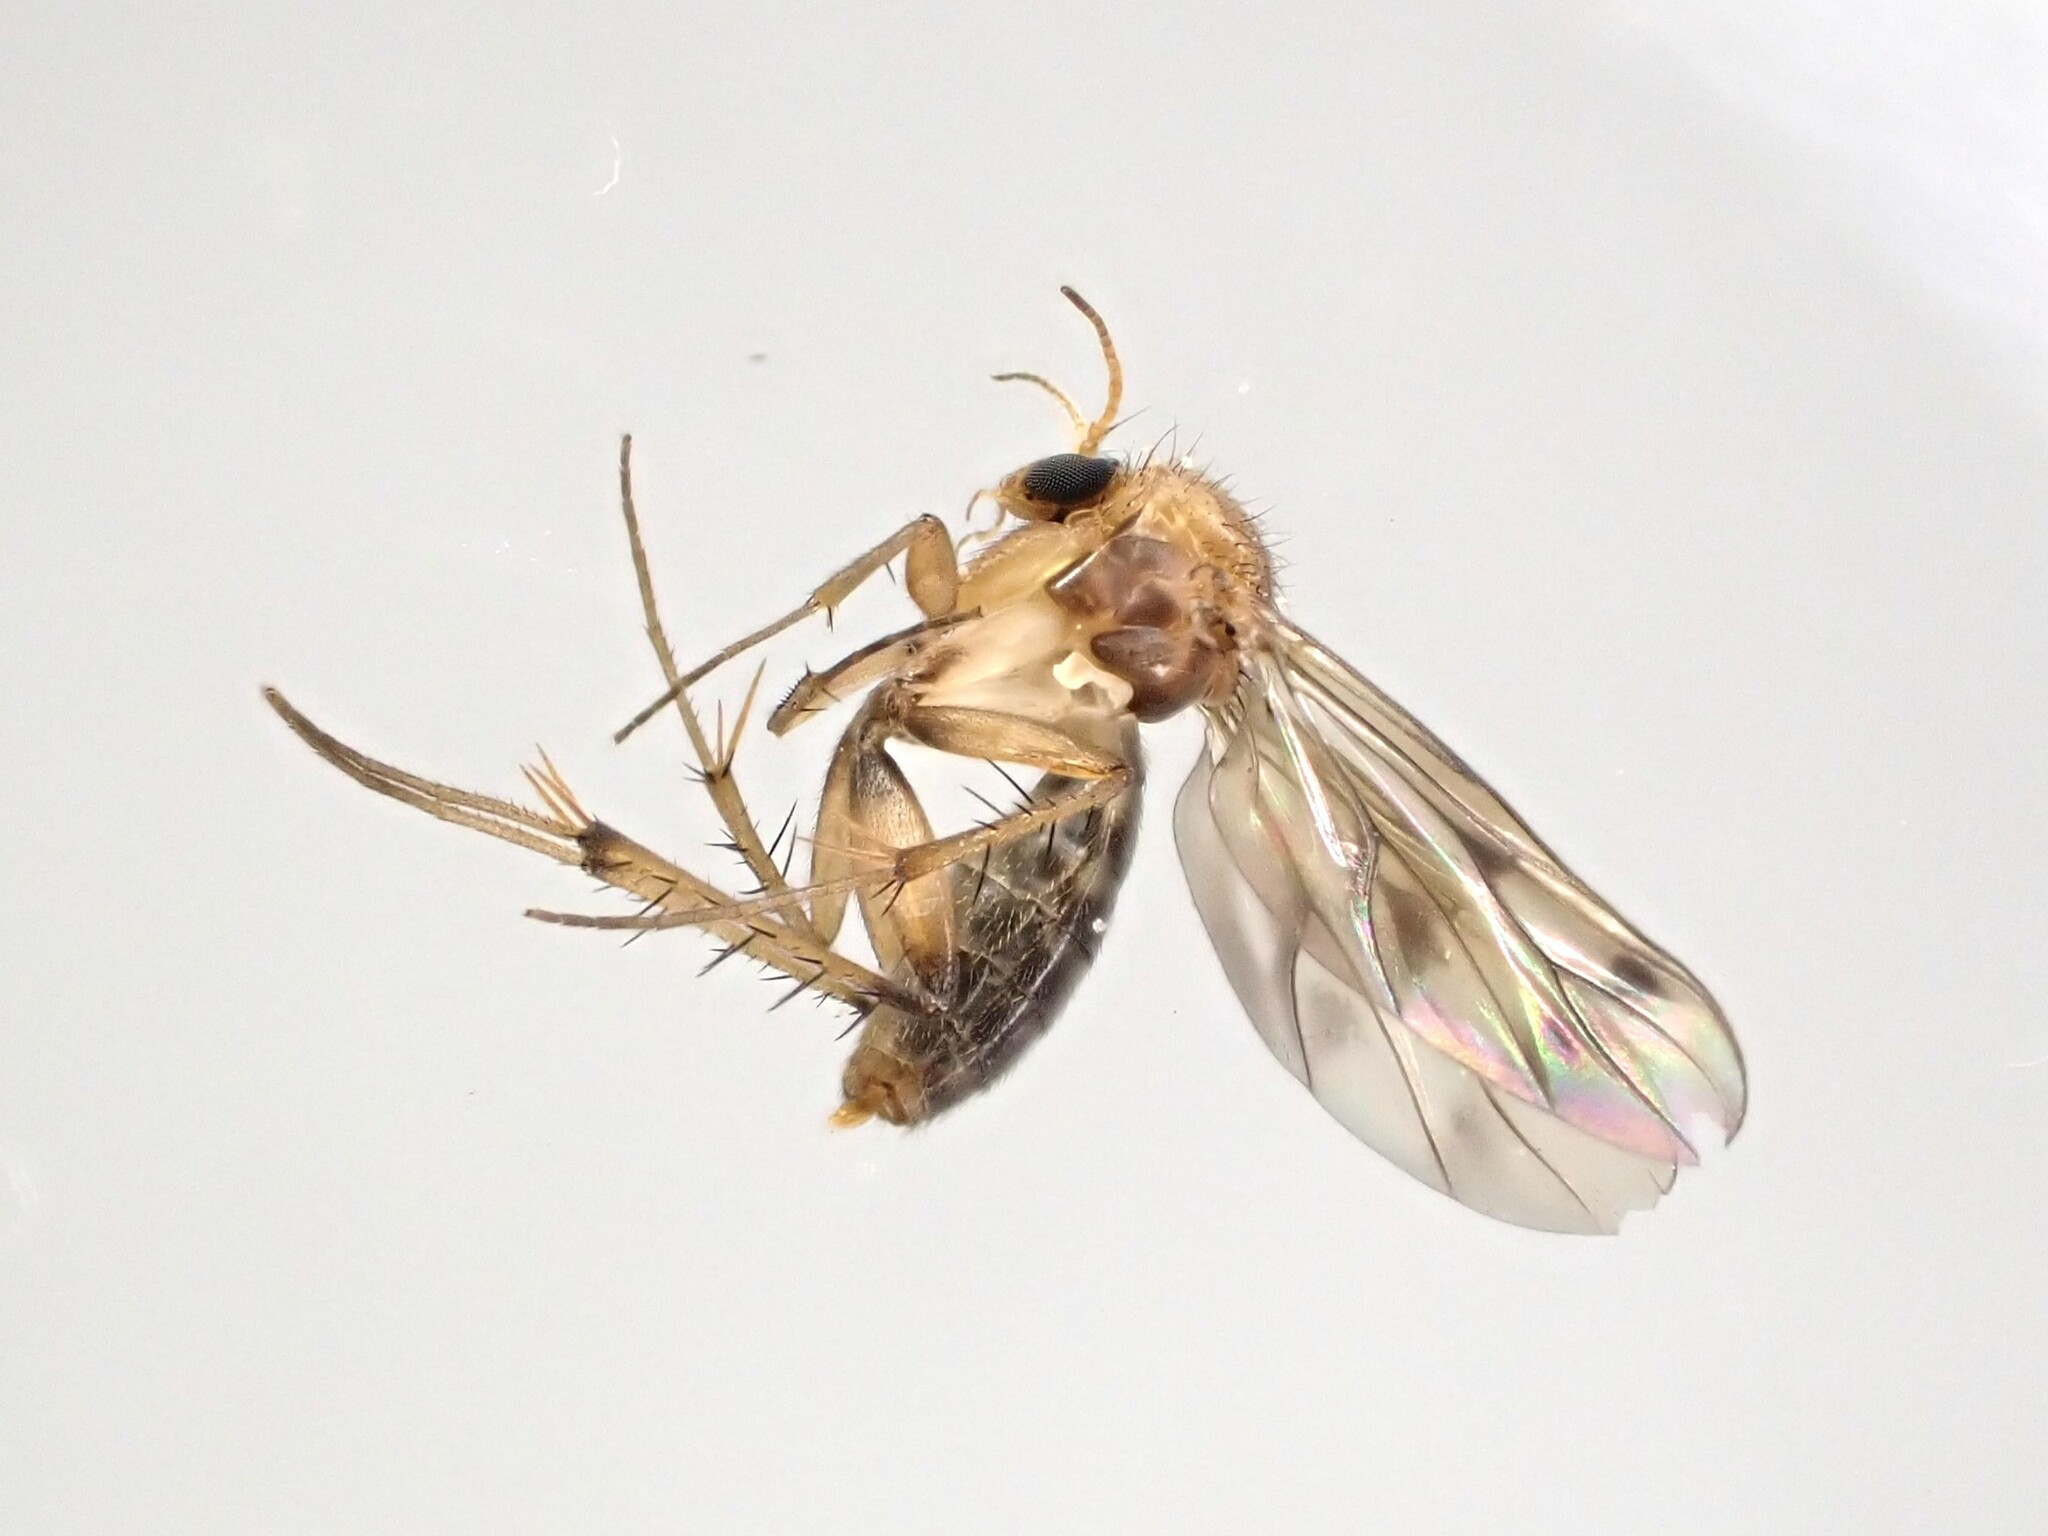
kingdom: Animalia
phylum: Arthropoda
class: Insecta
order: Diptera
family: Mycetophilidae
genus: Anomalomyia
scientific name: Anomalomyia guttata
